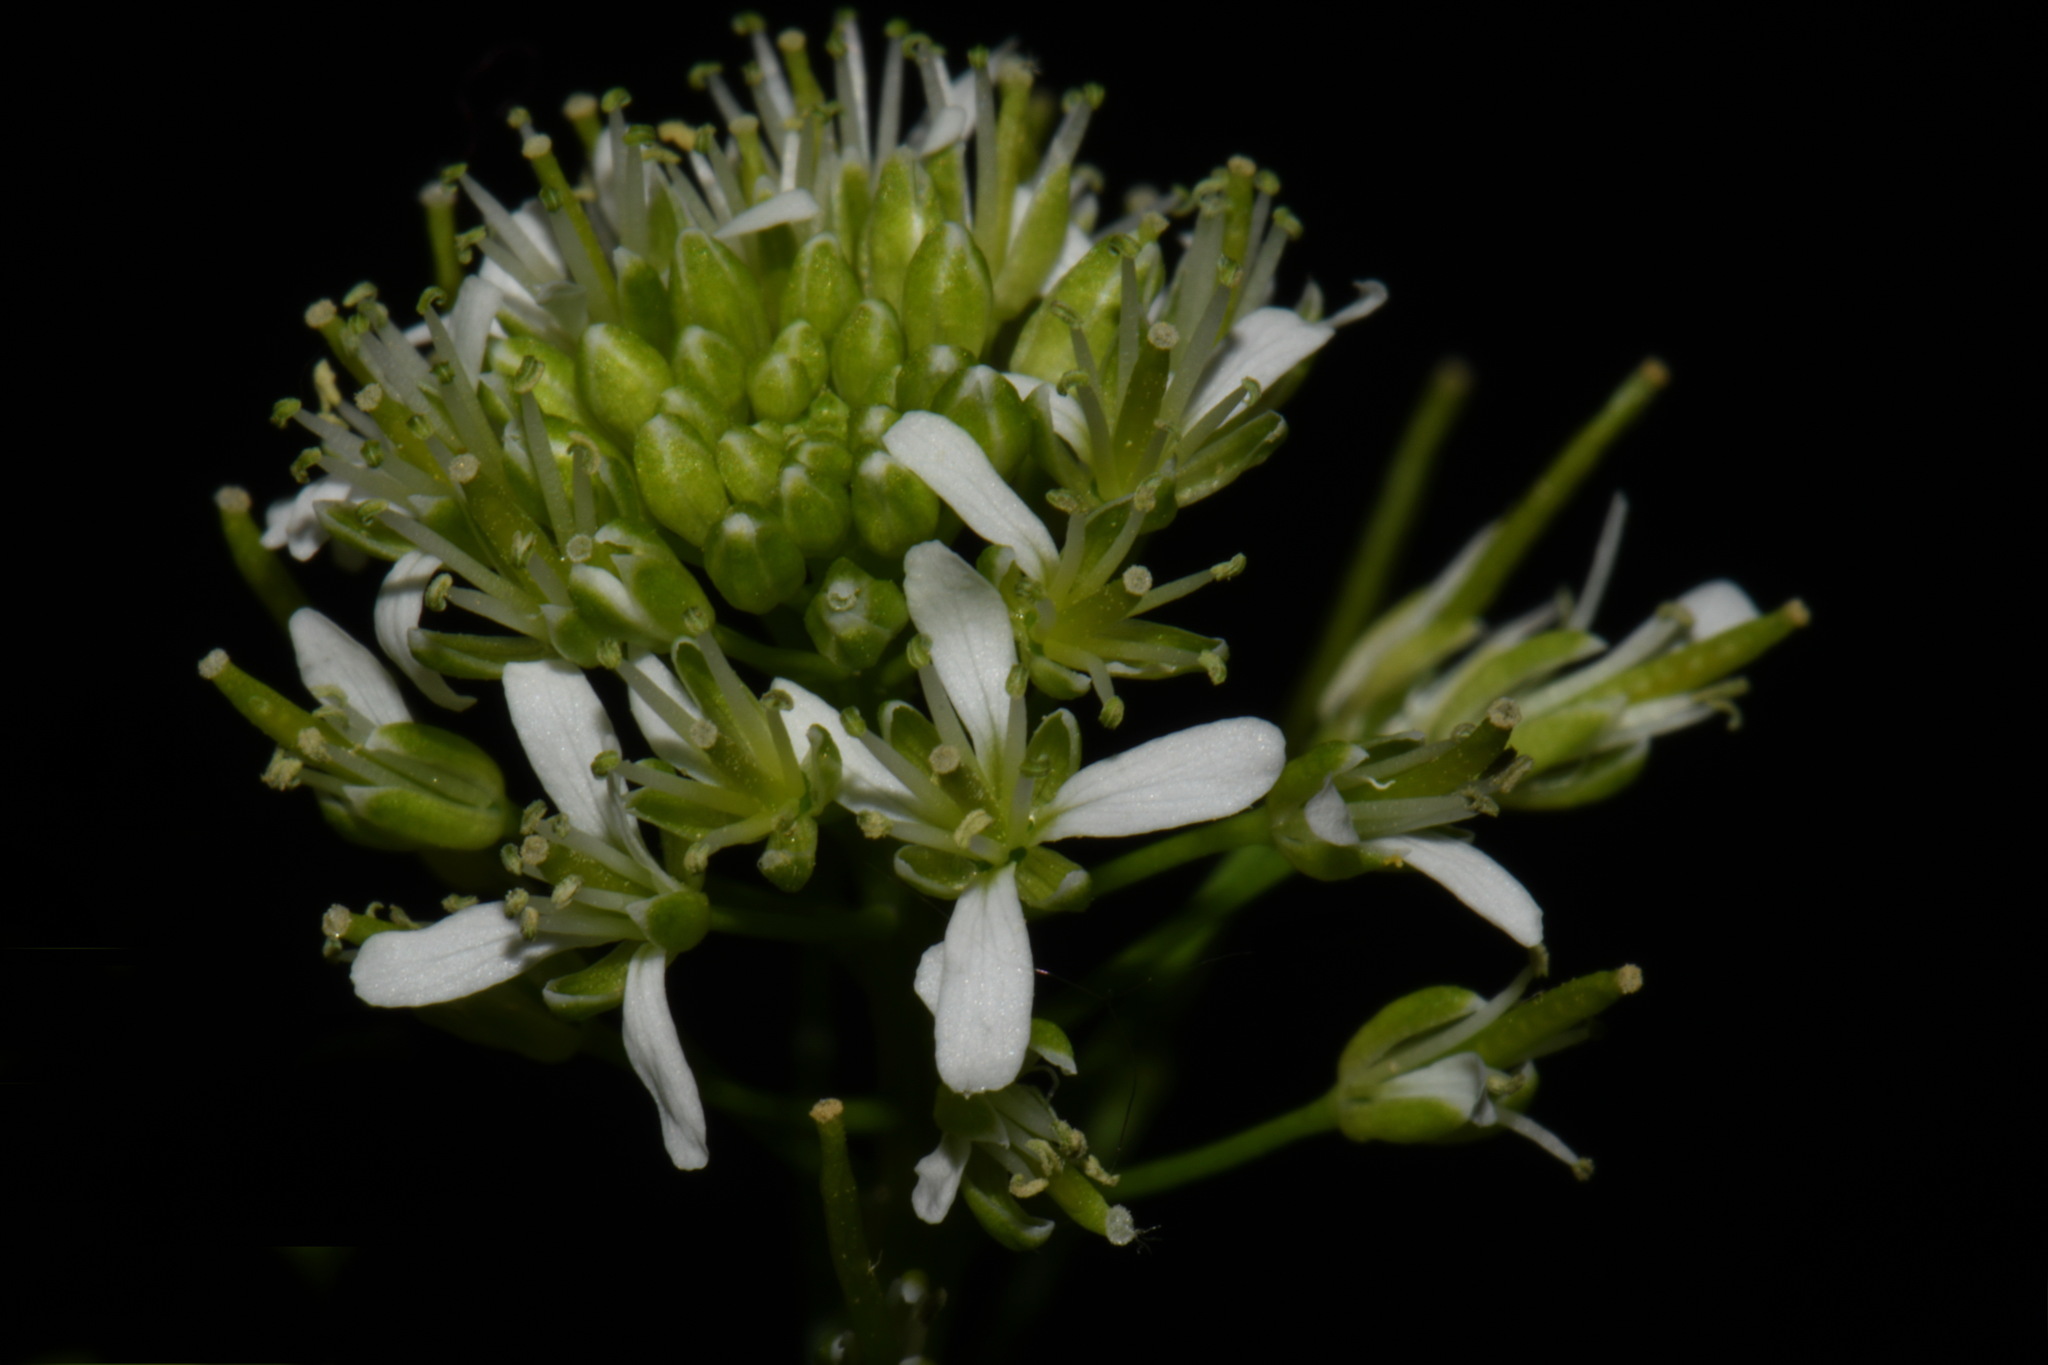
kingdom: Plantae
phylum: Tracheophyta
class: Magnoliopsida
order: Brassicales
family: Brassicaceae
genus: Cardamine
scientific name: Cardamine impatiens
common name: Narrow-leaved bitter-cress
